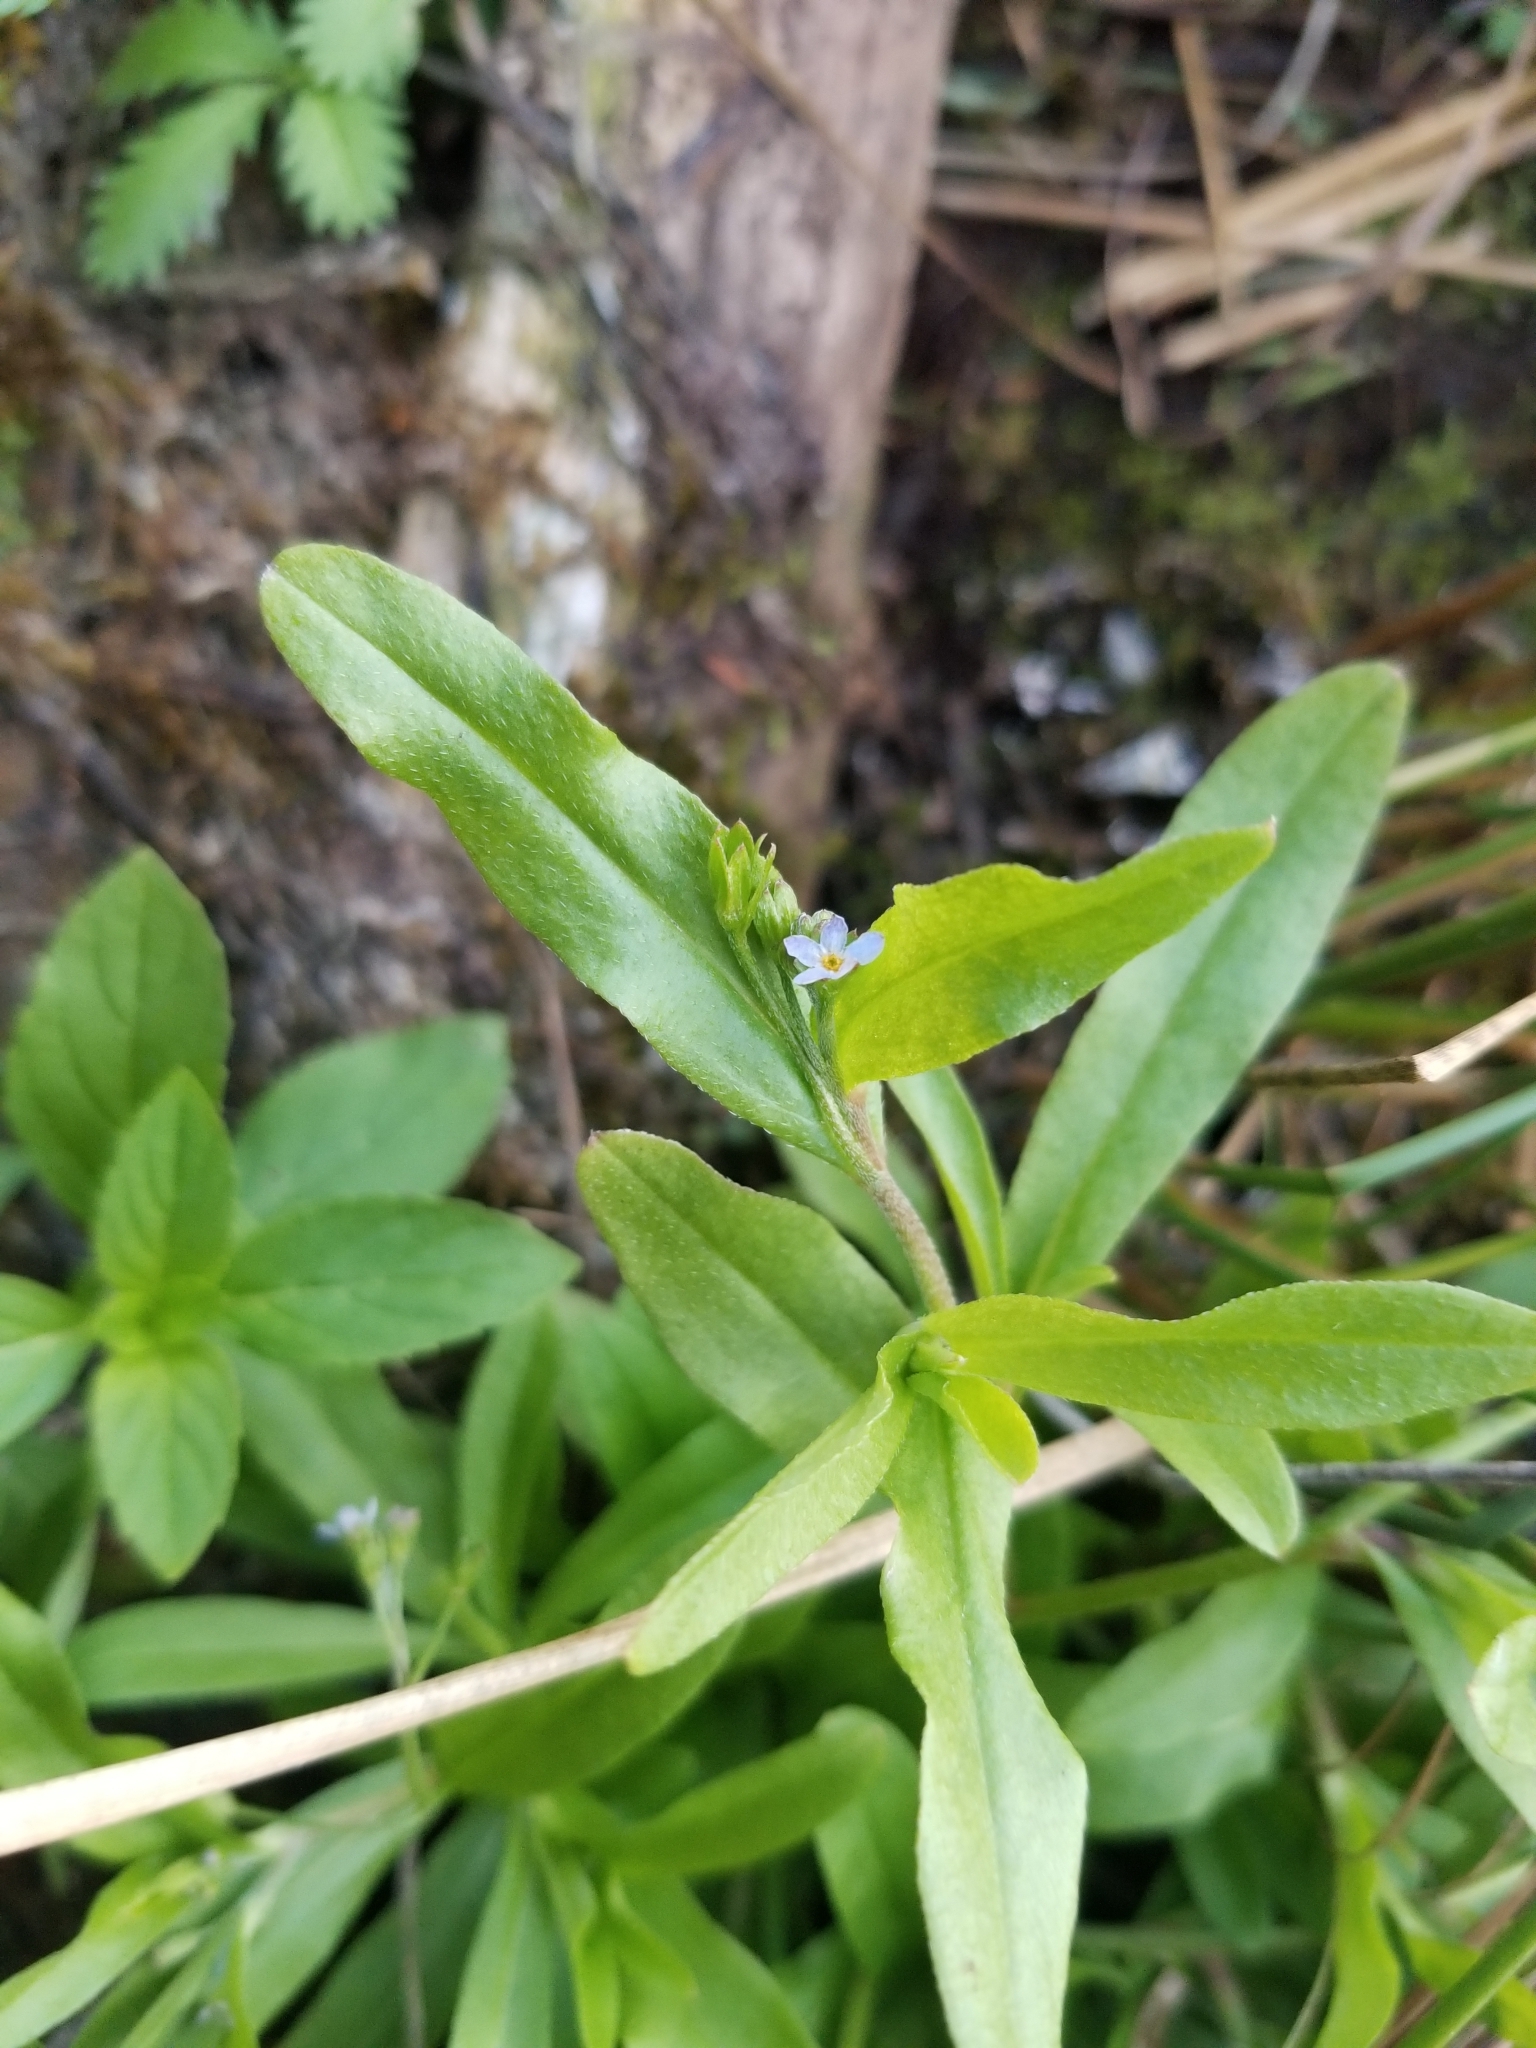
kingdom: Plantae
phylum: Tracheophyta
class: Magnoliopsida
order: Boraginales
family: Boraginaceae
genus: Myosotis
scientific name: Myosotis scorpioides
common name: Water forget-me-not
